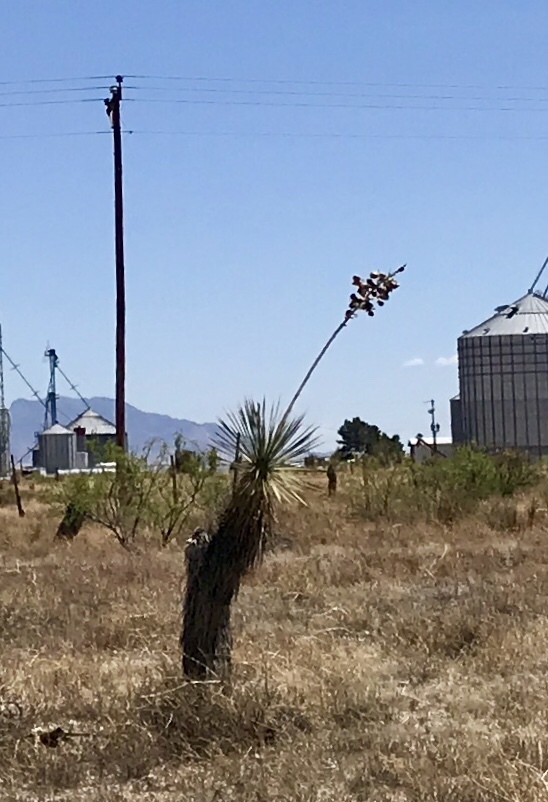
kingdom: Plantae
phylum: Tracheophyta
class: Liliopsida
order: Asparagales
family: Asparagaceae
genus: Yucca
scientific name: Yucca elata
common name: Palmella
